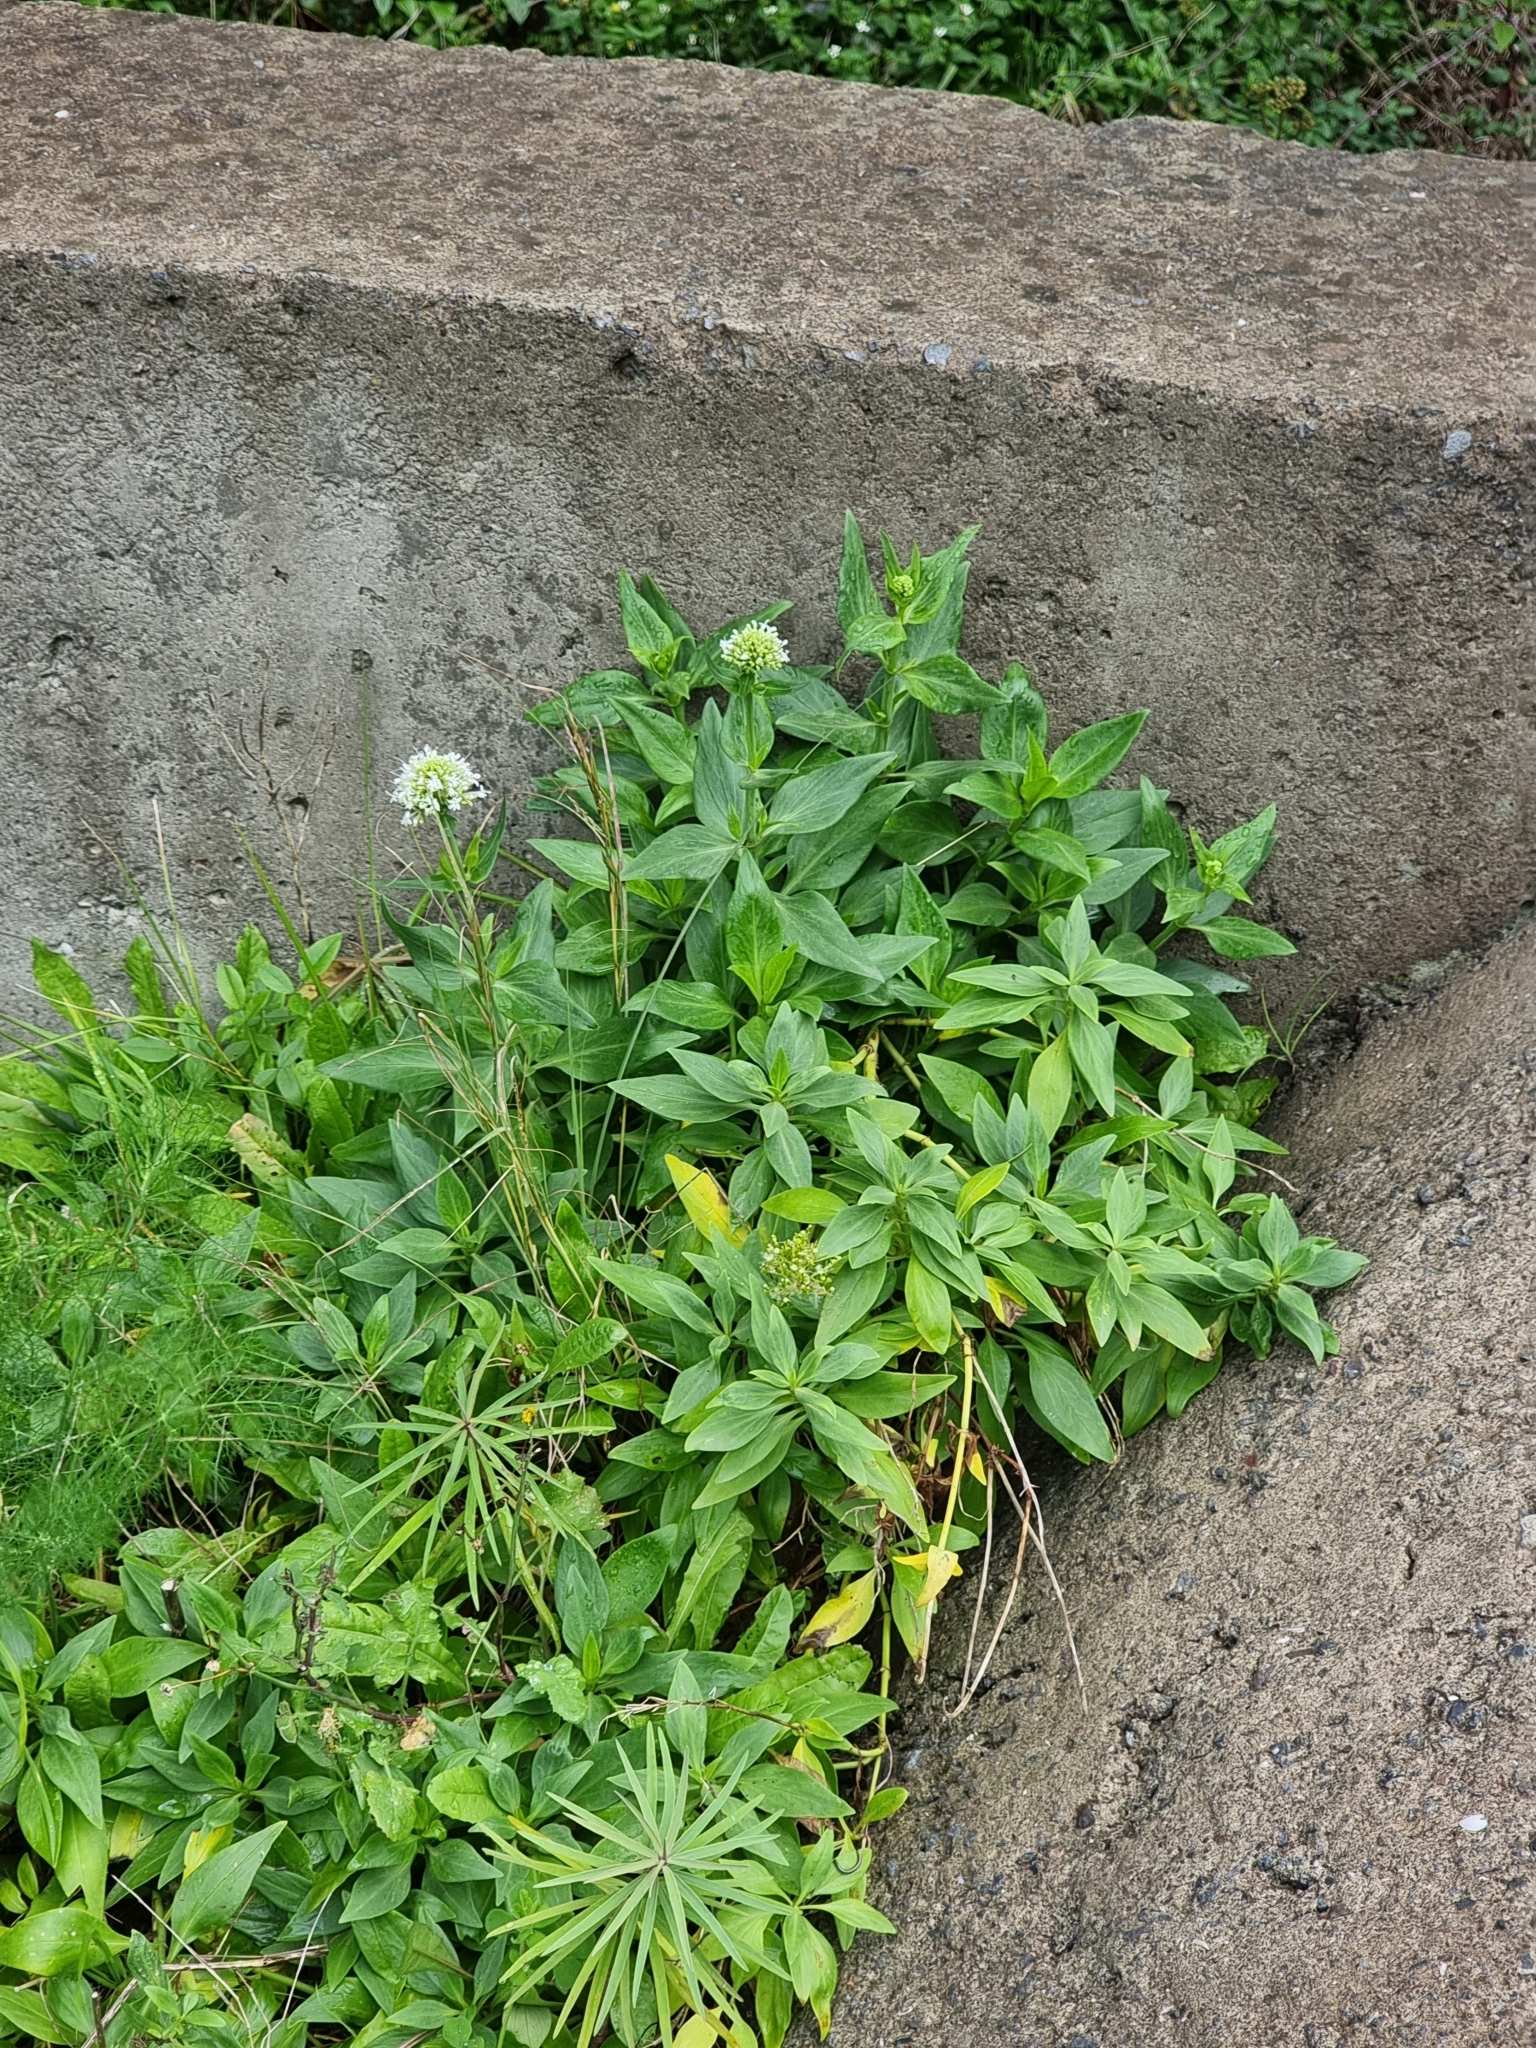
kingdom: Plantae
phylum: Tracheophyta
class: Magnoliopsida
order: Dipsacales
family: Caprifoliaceae
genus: Centranthus
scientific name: Centranthus ruber
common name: Red valerian
